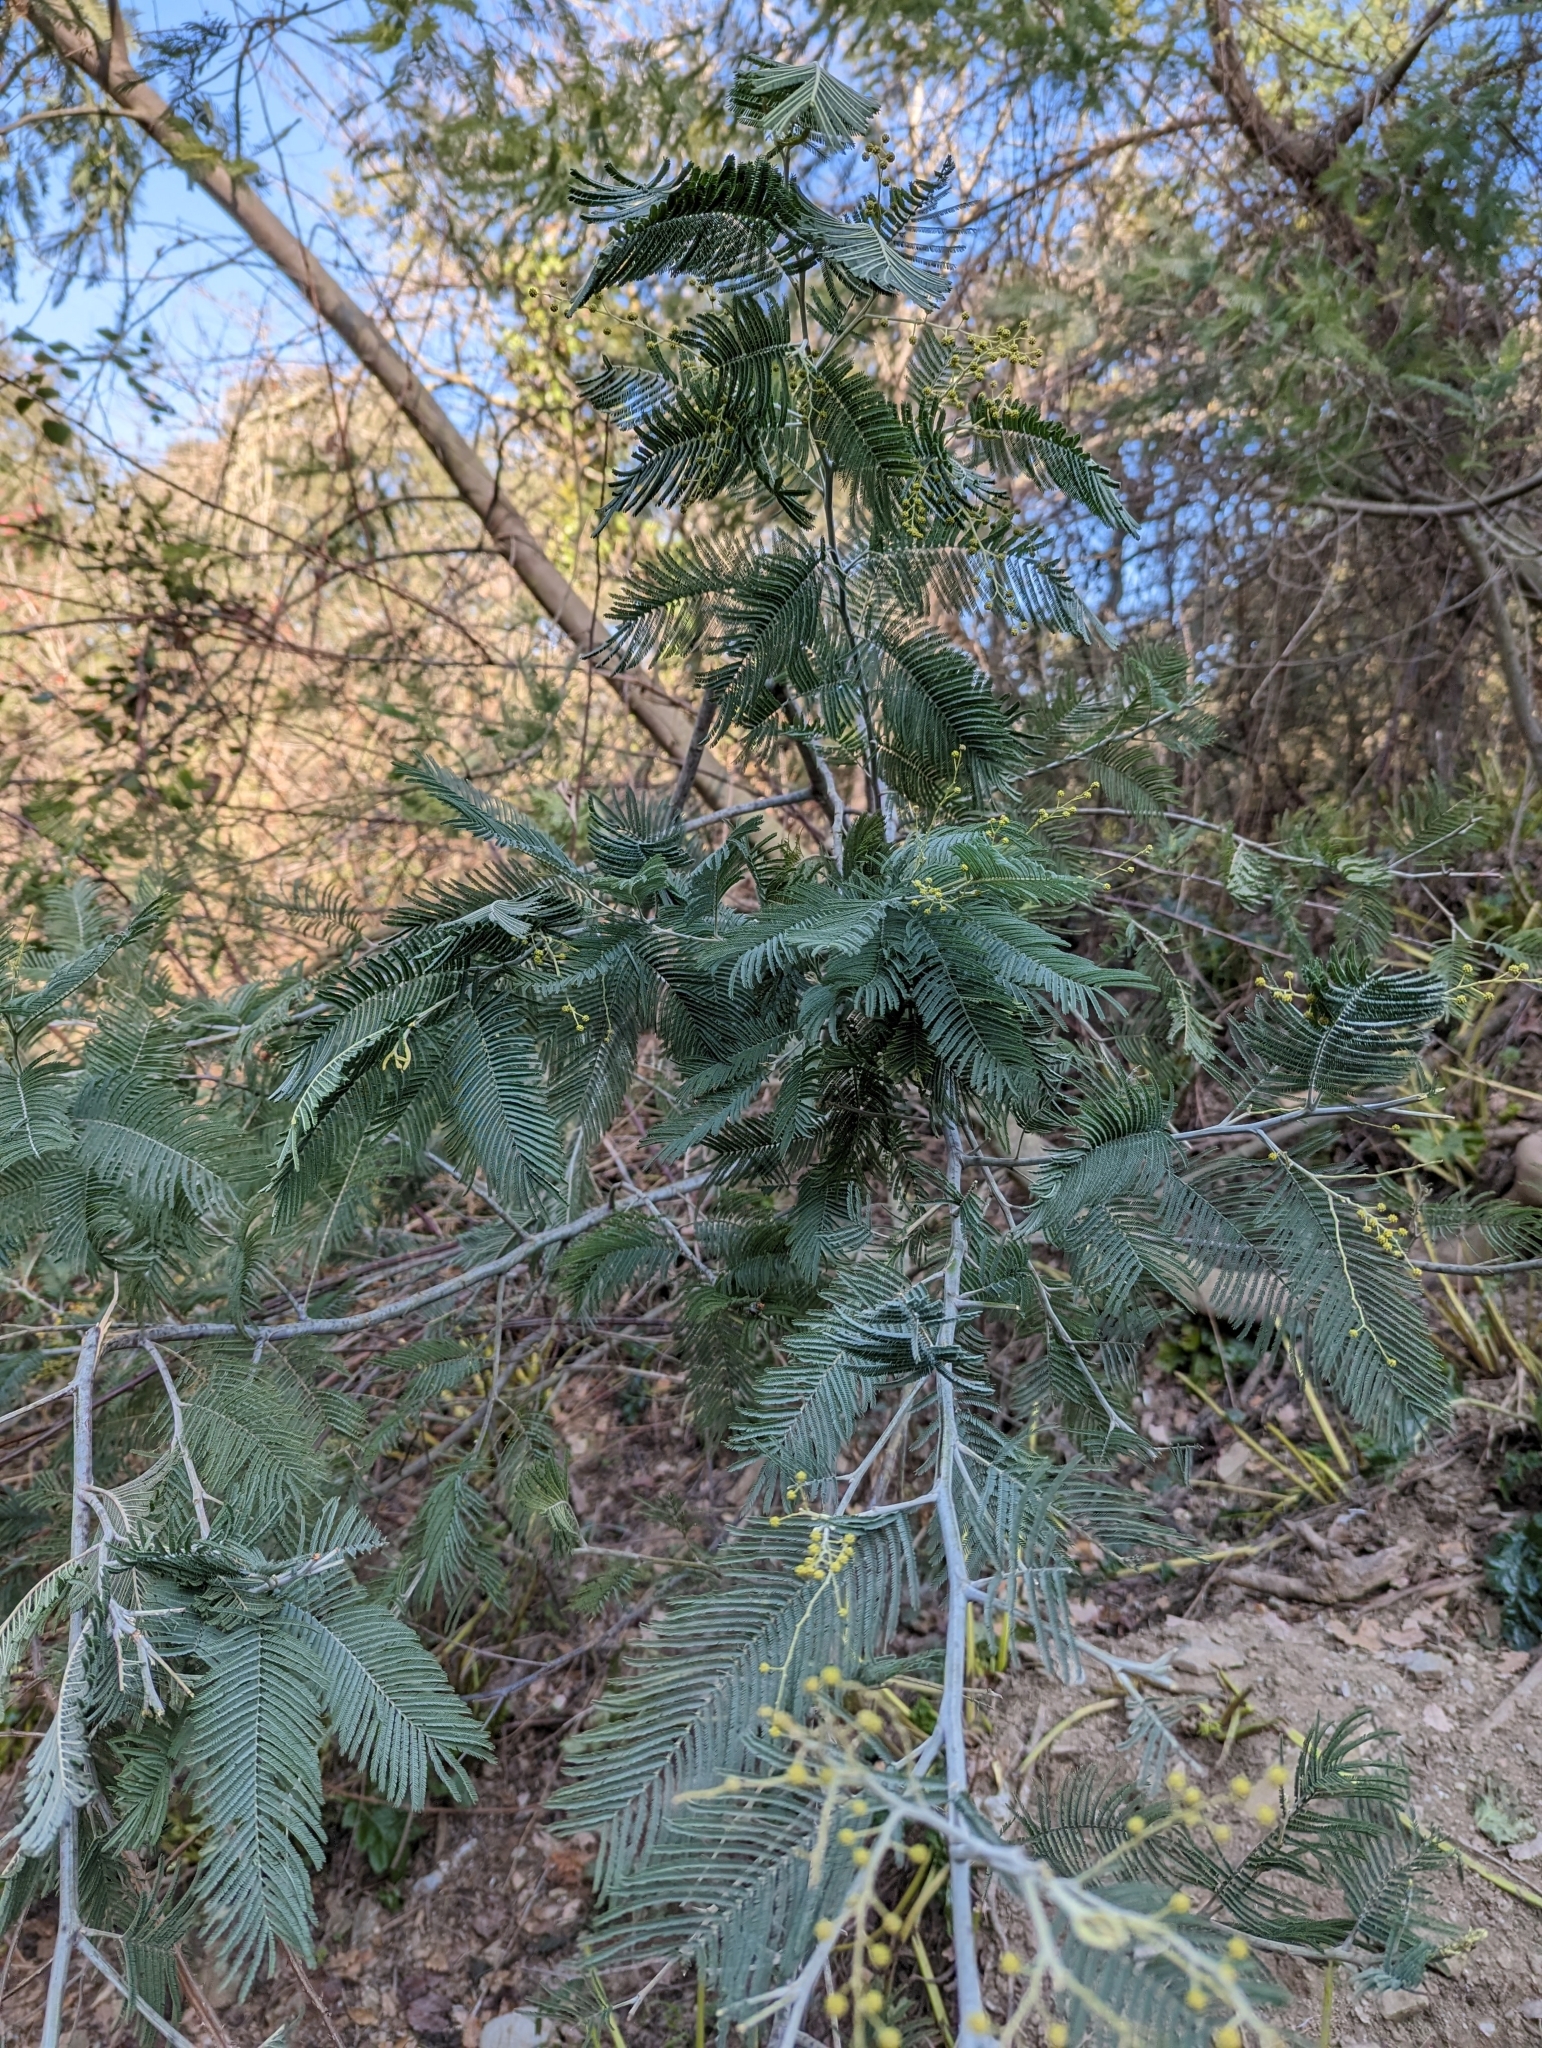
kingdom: Plantae
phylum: Tracheophyta
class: Magnoliopsida
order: Fabales
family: Fabaceae
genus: Acacia
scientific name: Acacia dealbata
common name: Silver wattle
